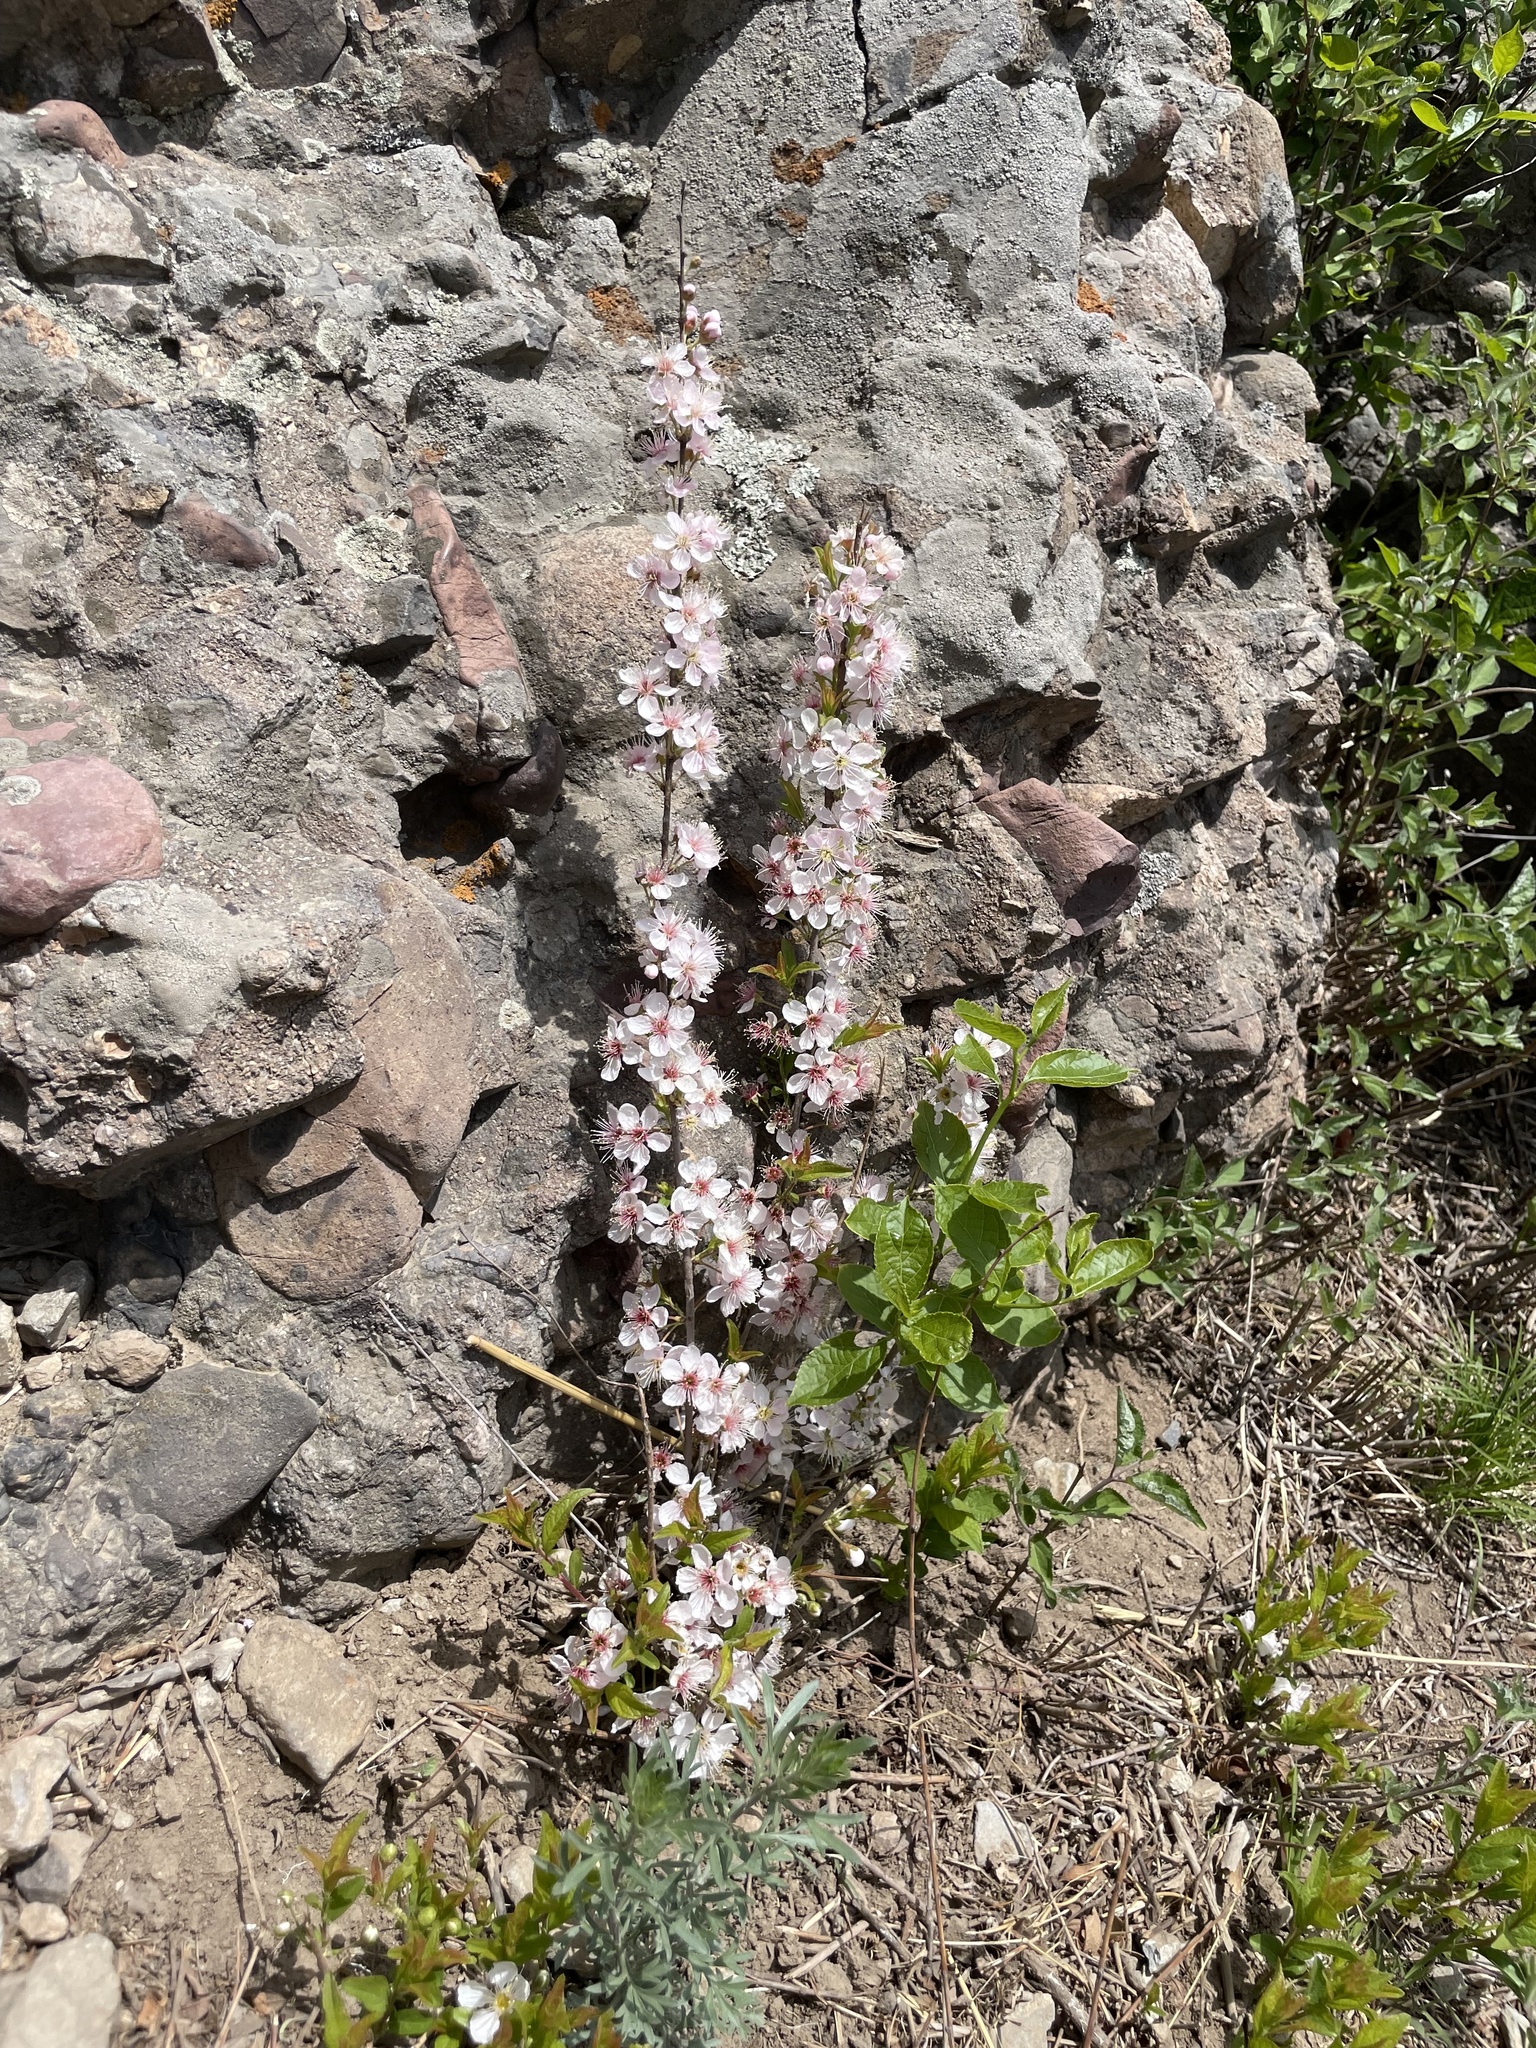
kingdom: Plantae
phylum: Tracheophyta
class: Magnoliopsida
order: Rosales
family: Rosaceae
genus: Prunus
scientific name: Prunus humilis
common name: Humble bush cherry
